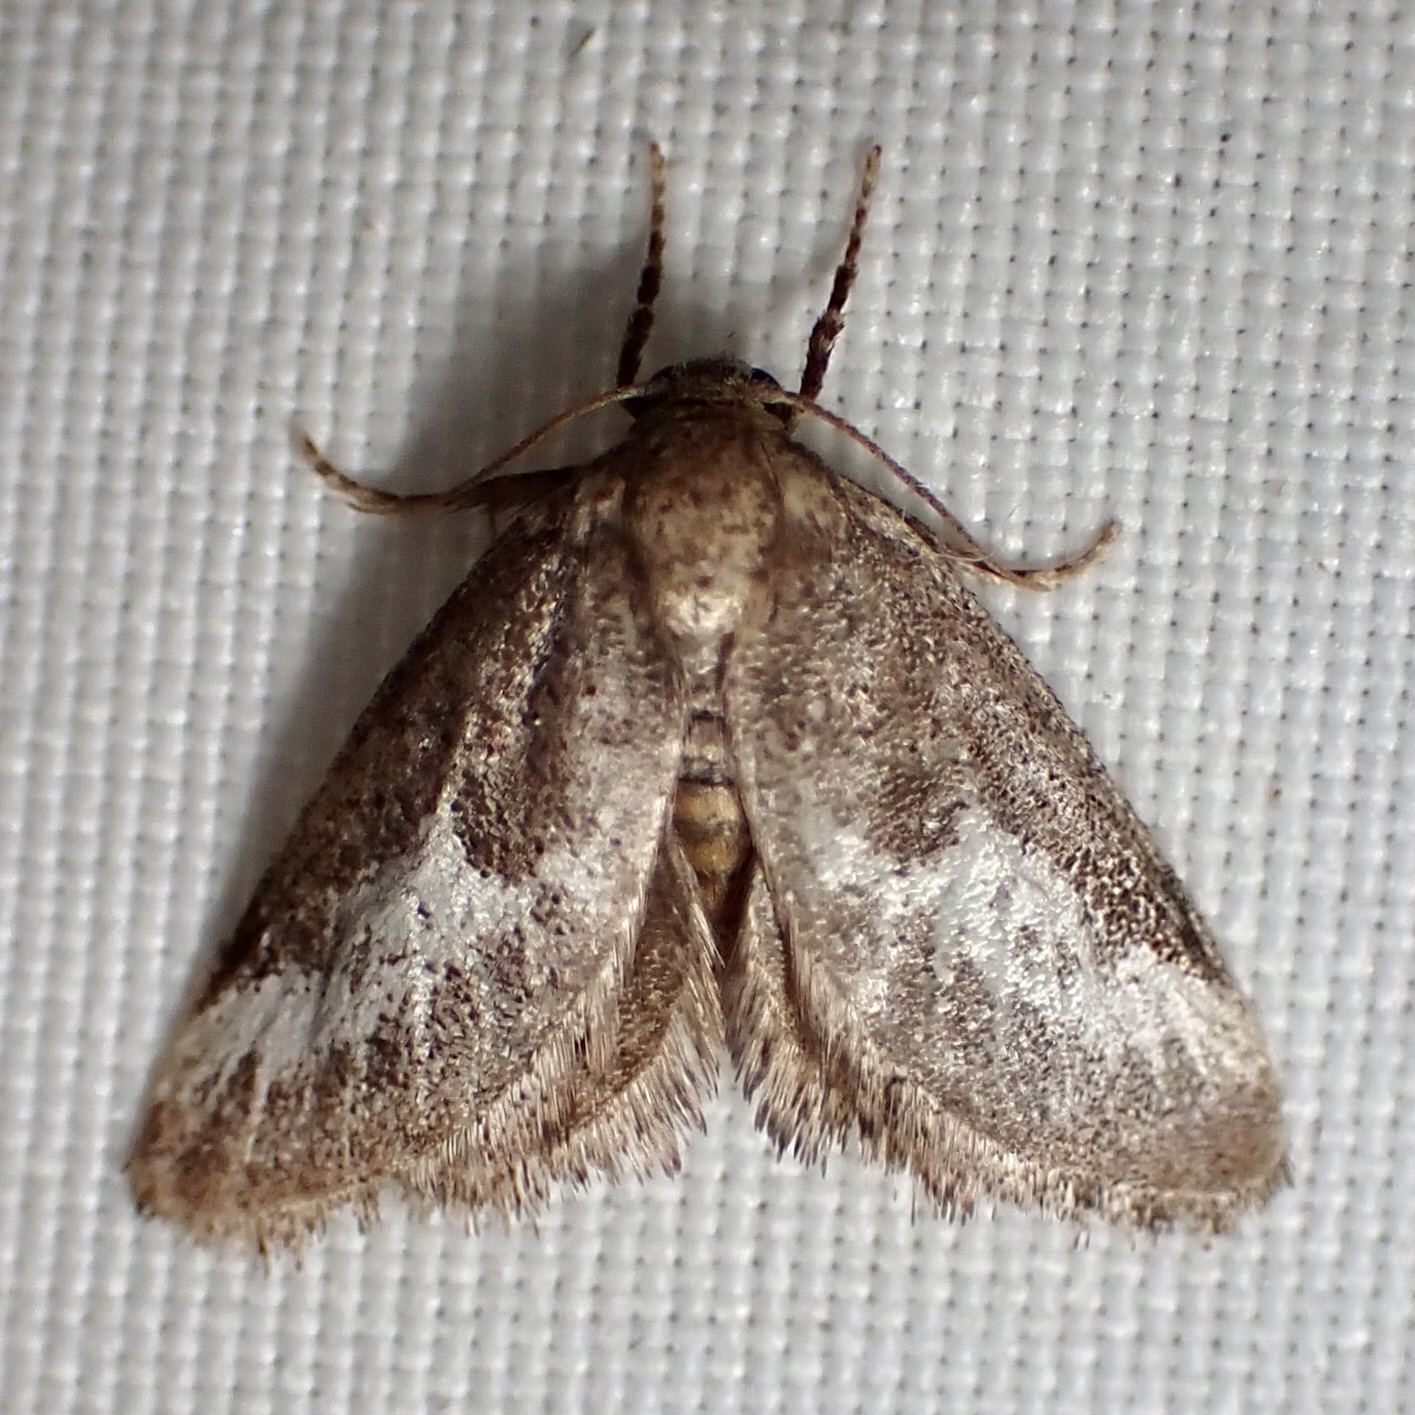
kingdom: Animalia
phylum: Arthropoda
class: Insecta
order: Lepidoptera
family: Limacodidae
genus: Cryptophobetron
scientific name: Cryptophobetron oropeso
